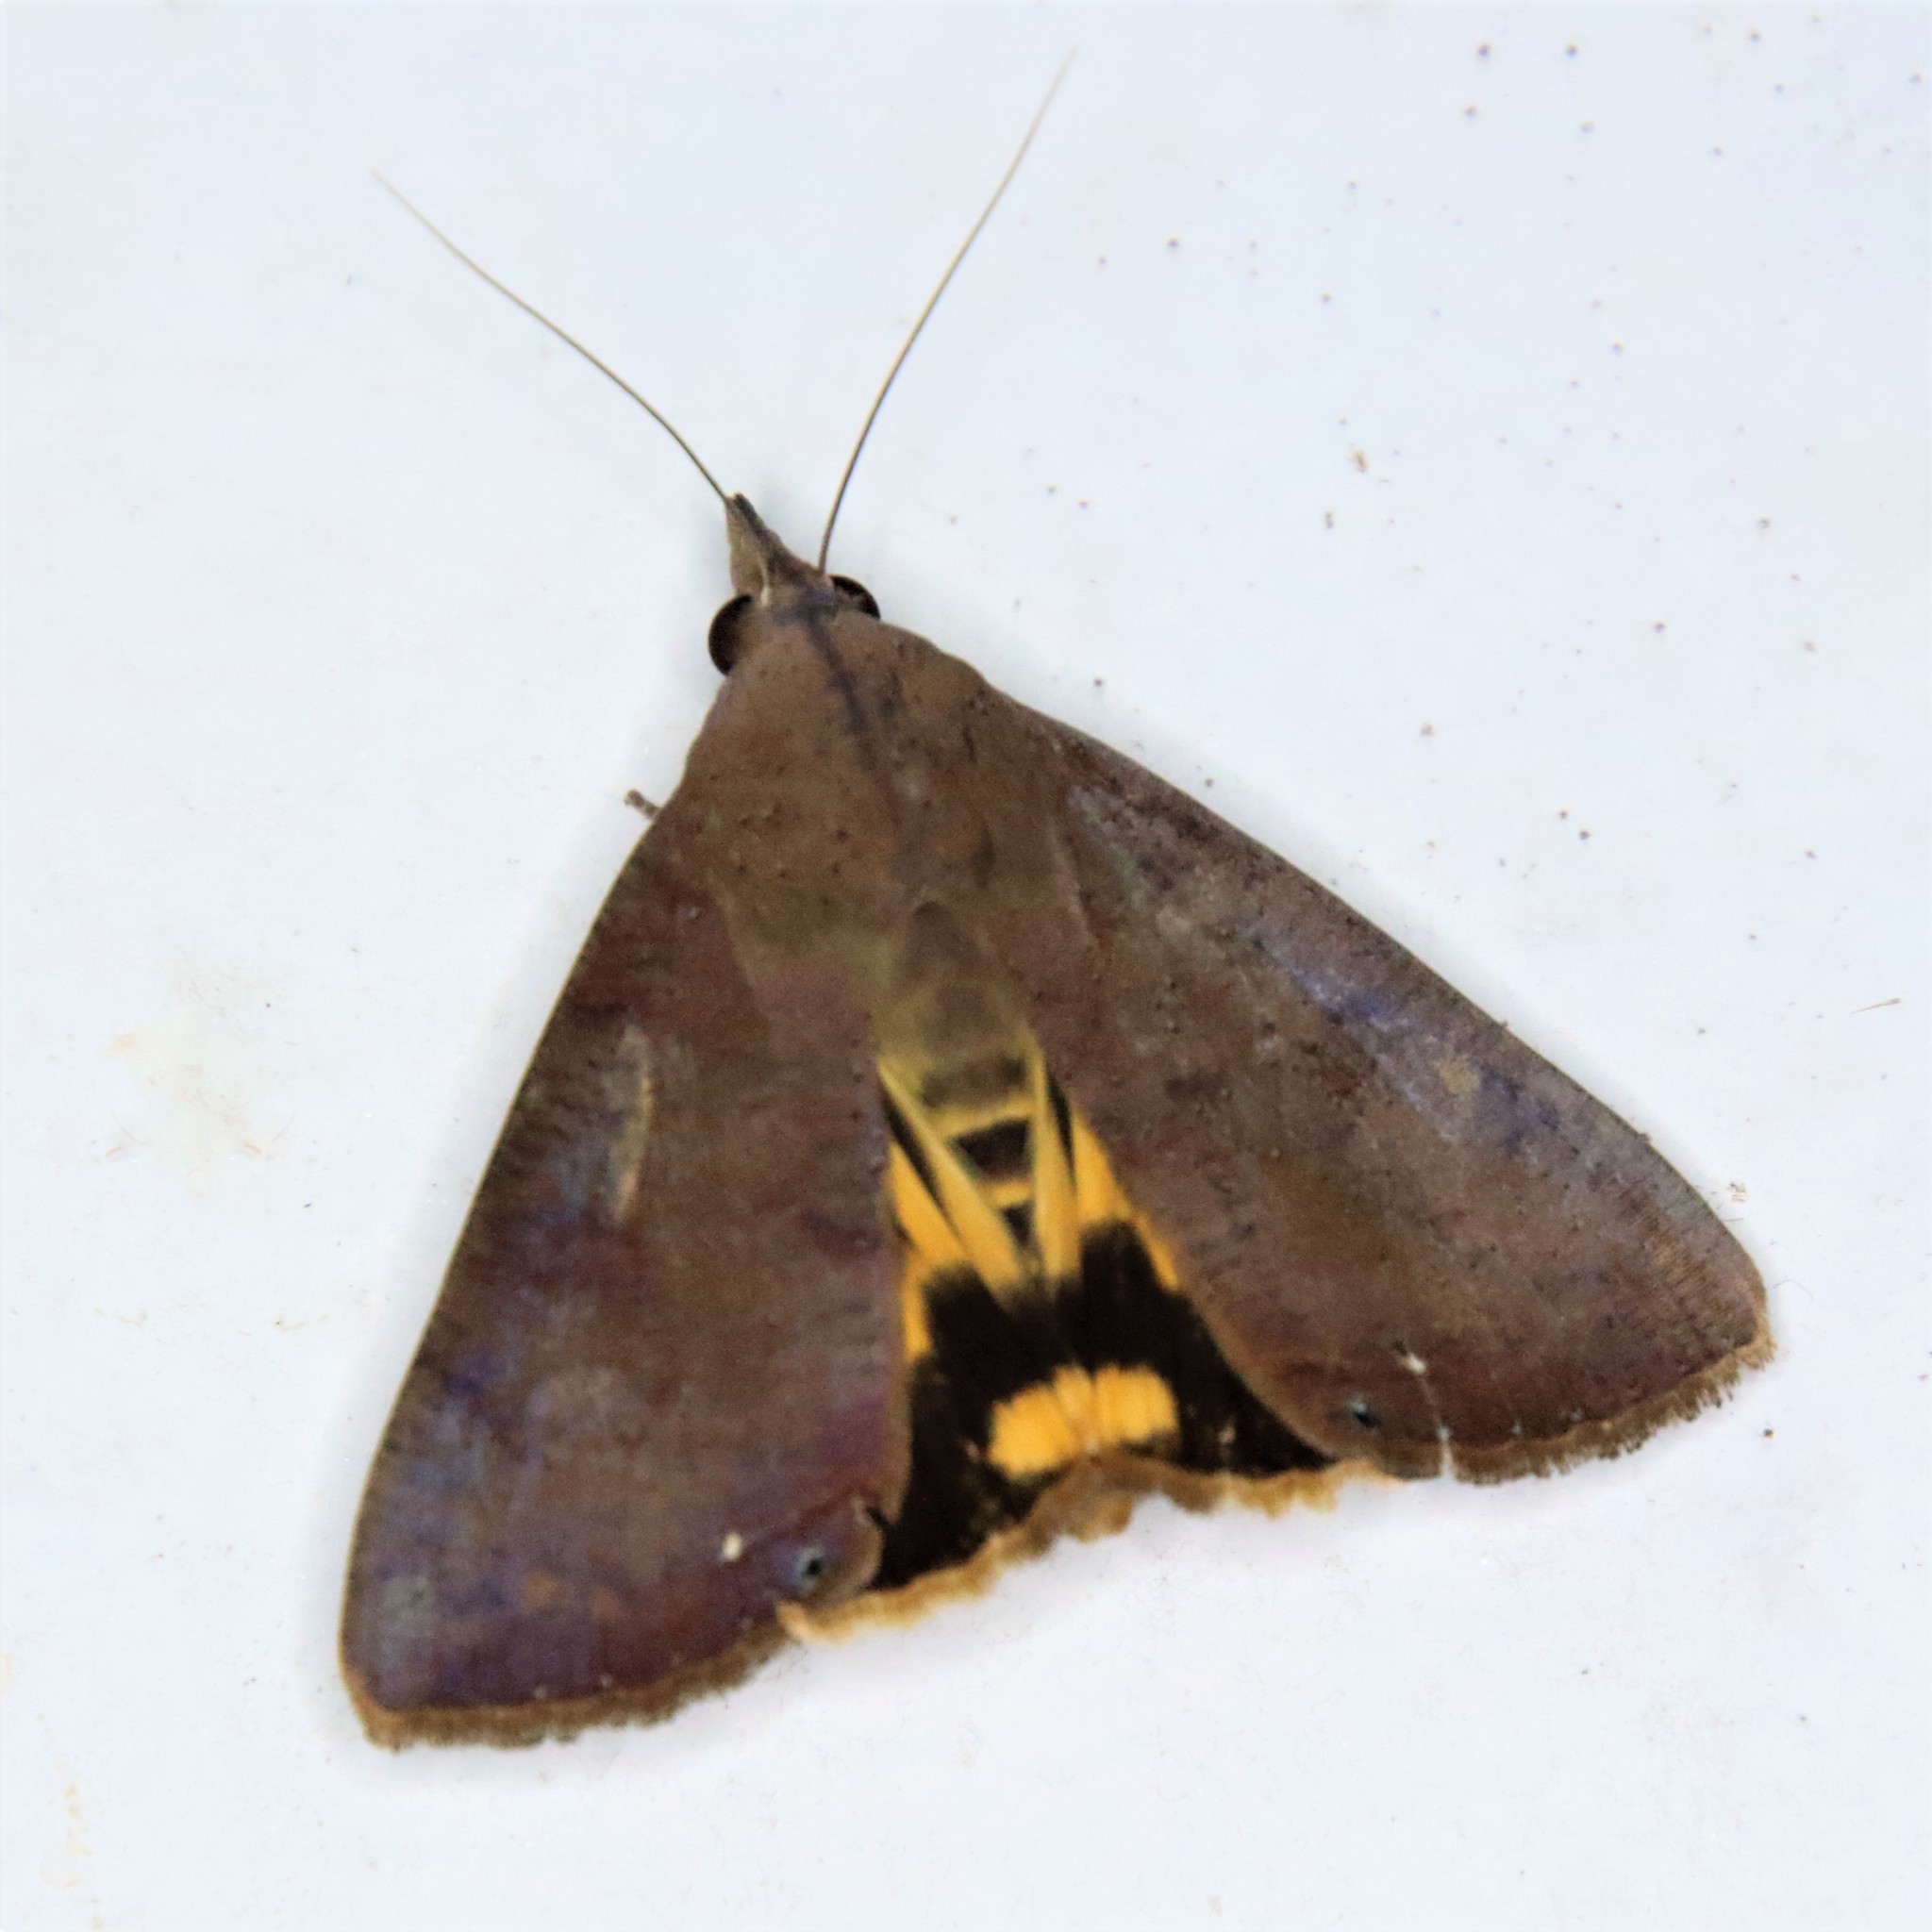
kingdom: Animalia
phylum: Arthropoda
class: Insecta
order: Lepidoptera
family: Erebidae
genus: Hypocala
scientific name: Hypocala violacea
